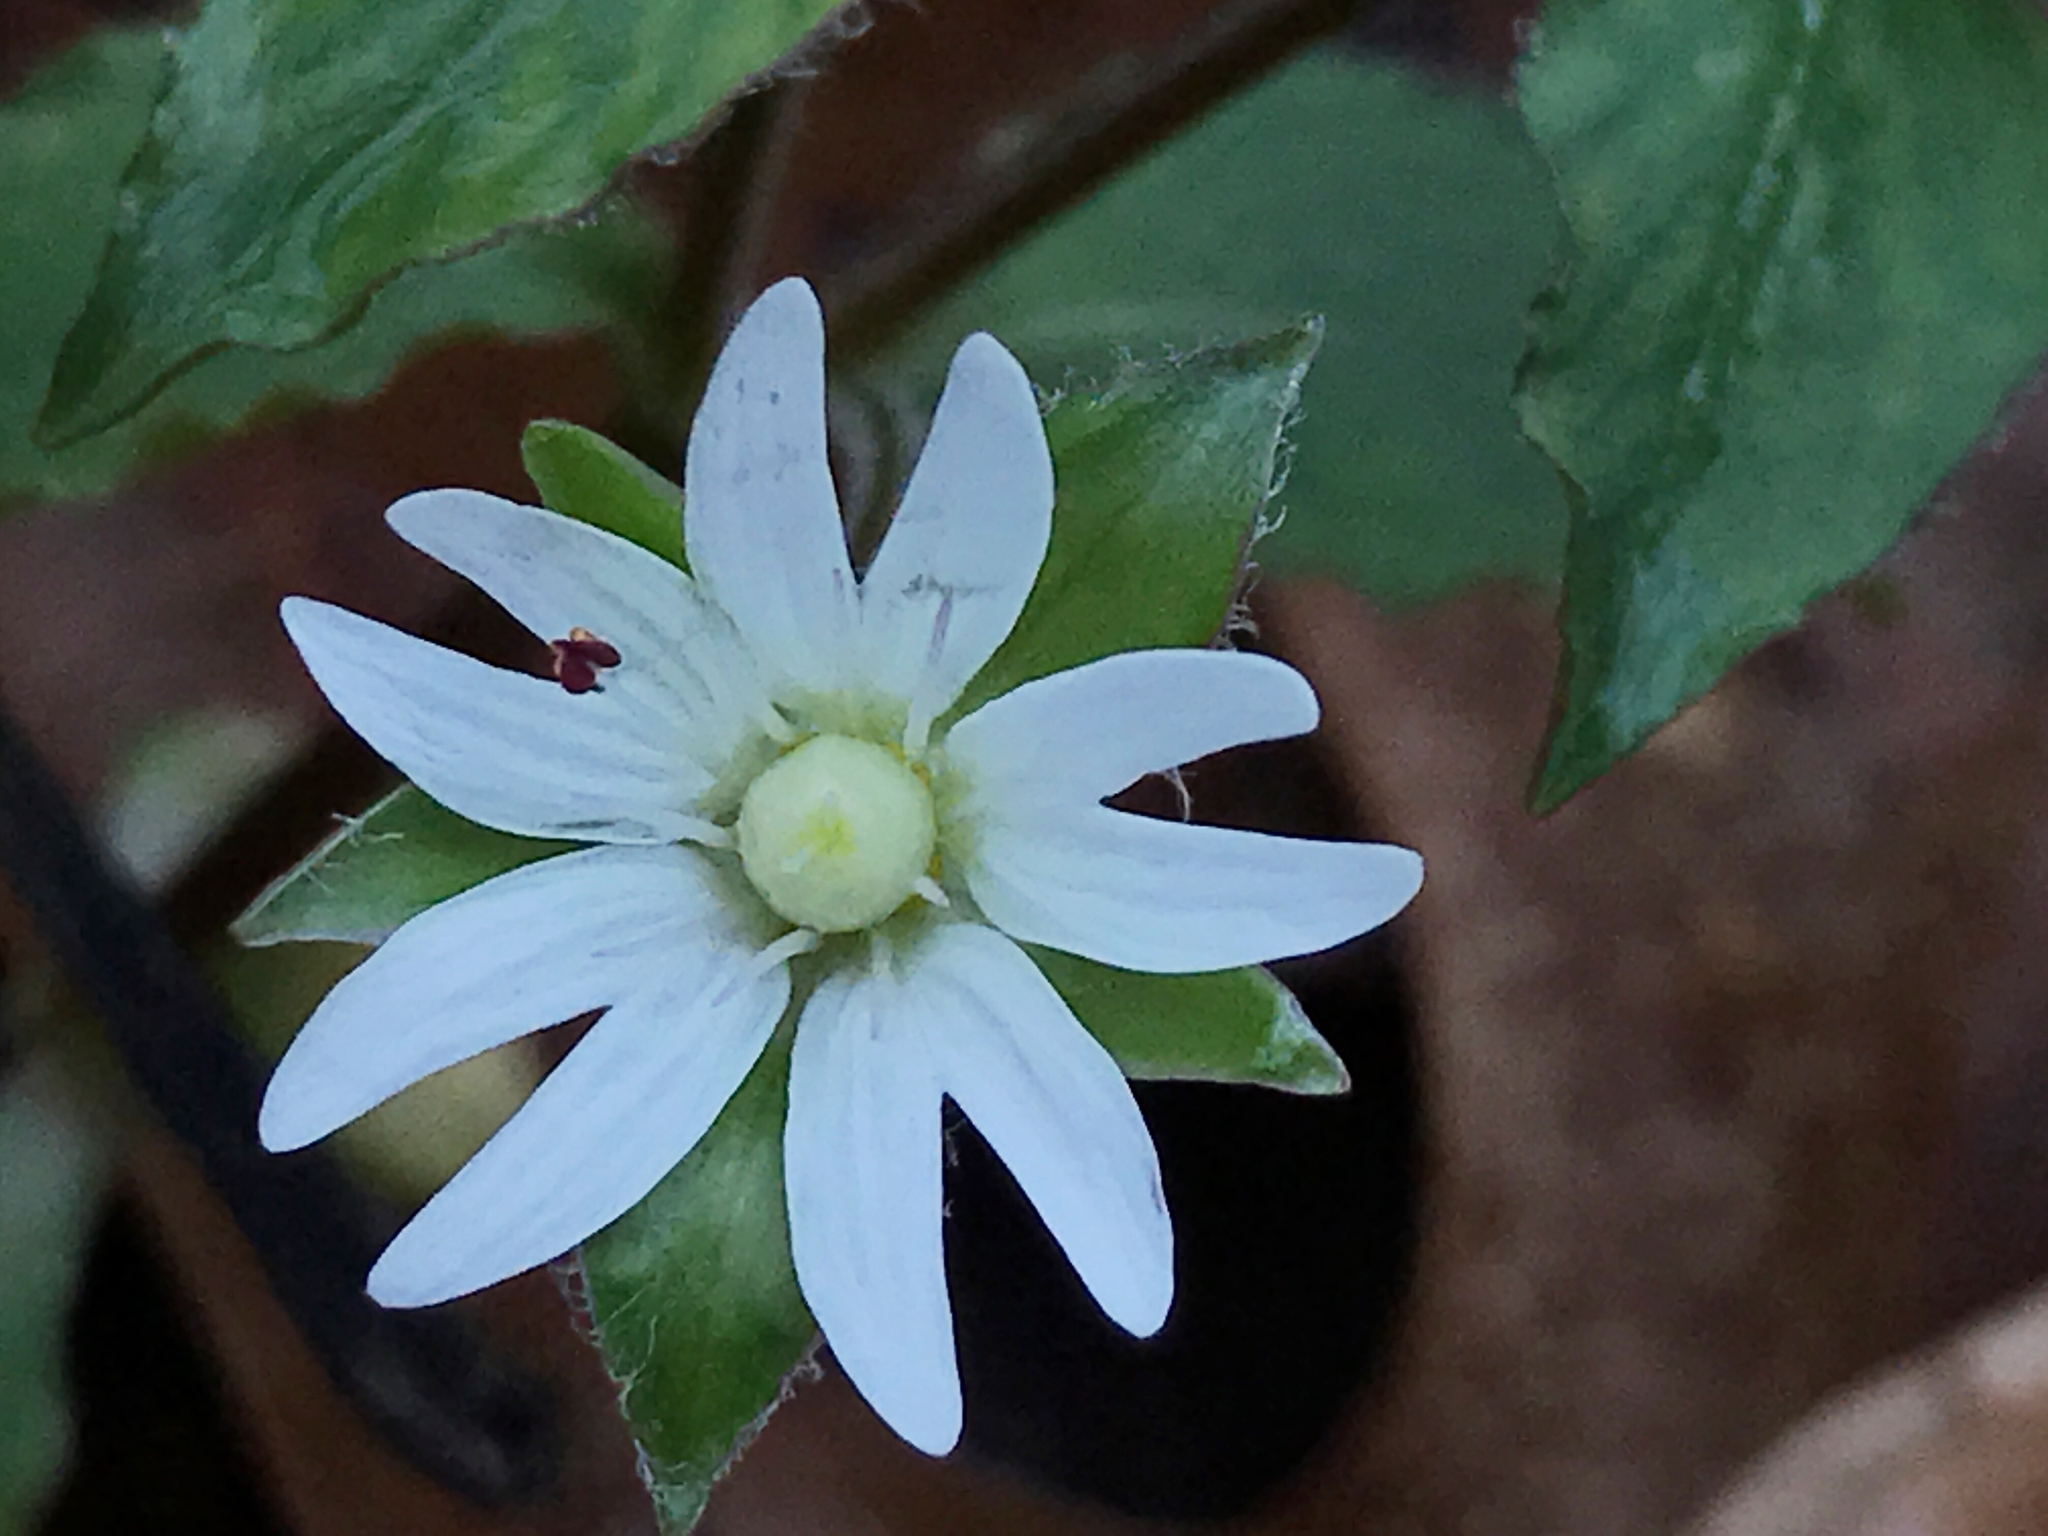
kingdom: Plantae
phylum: Tracheophyta
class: Magnoliopsida
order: Caryophyllales
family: Caryophyllaceae
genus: Stellaria
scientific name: Stellaria pubera
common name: Star chickweed
